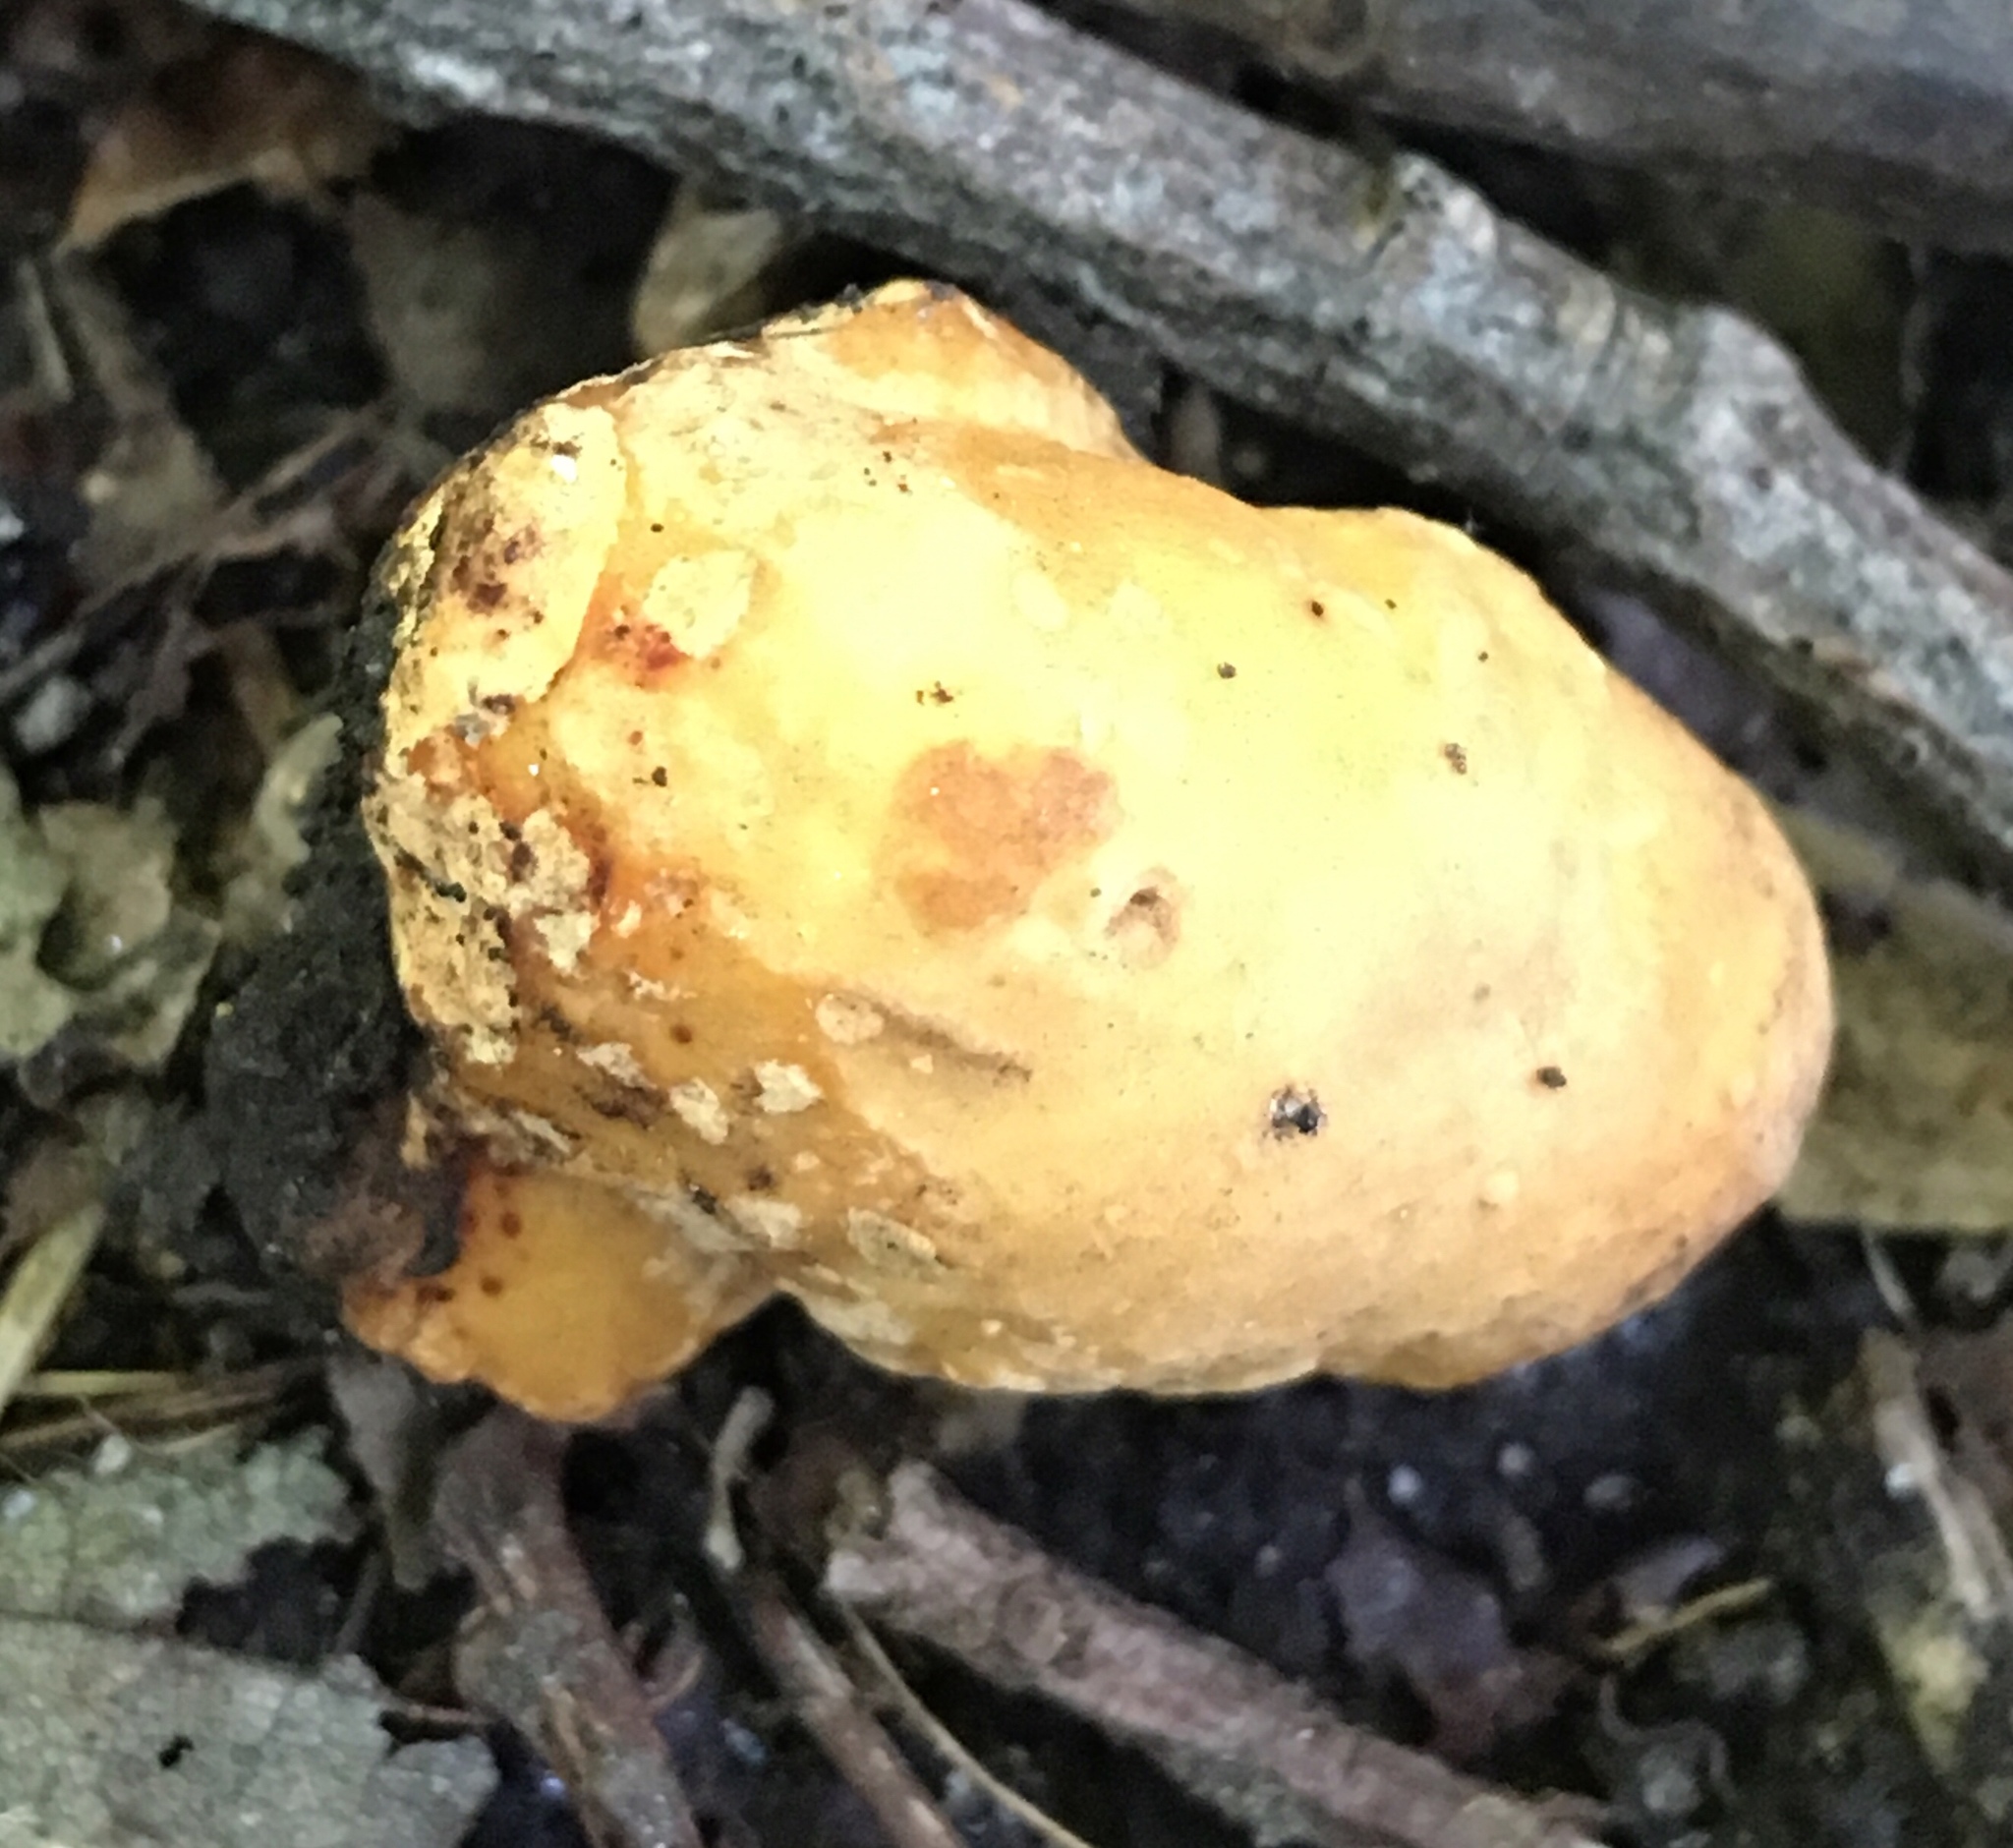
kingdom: Fungi
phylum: Ascomycota
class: Pezizomycetes
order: Pezizales
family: Pyronemataceae
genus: Densocarpa
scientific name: Densocarpa shanorii
